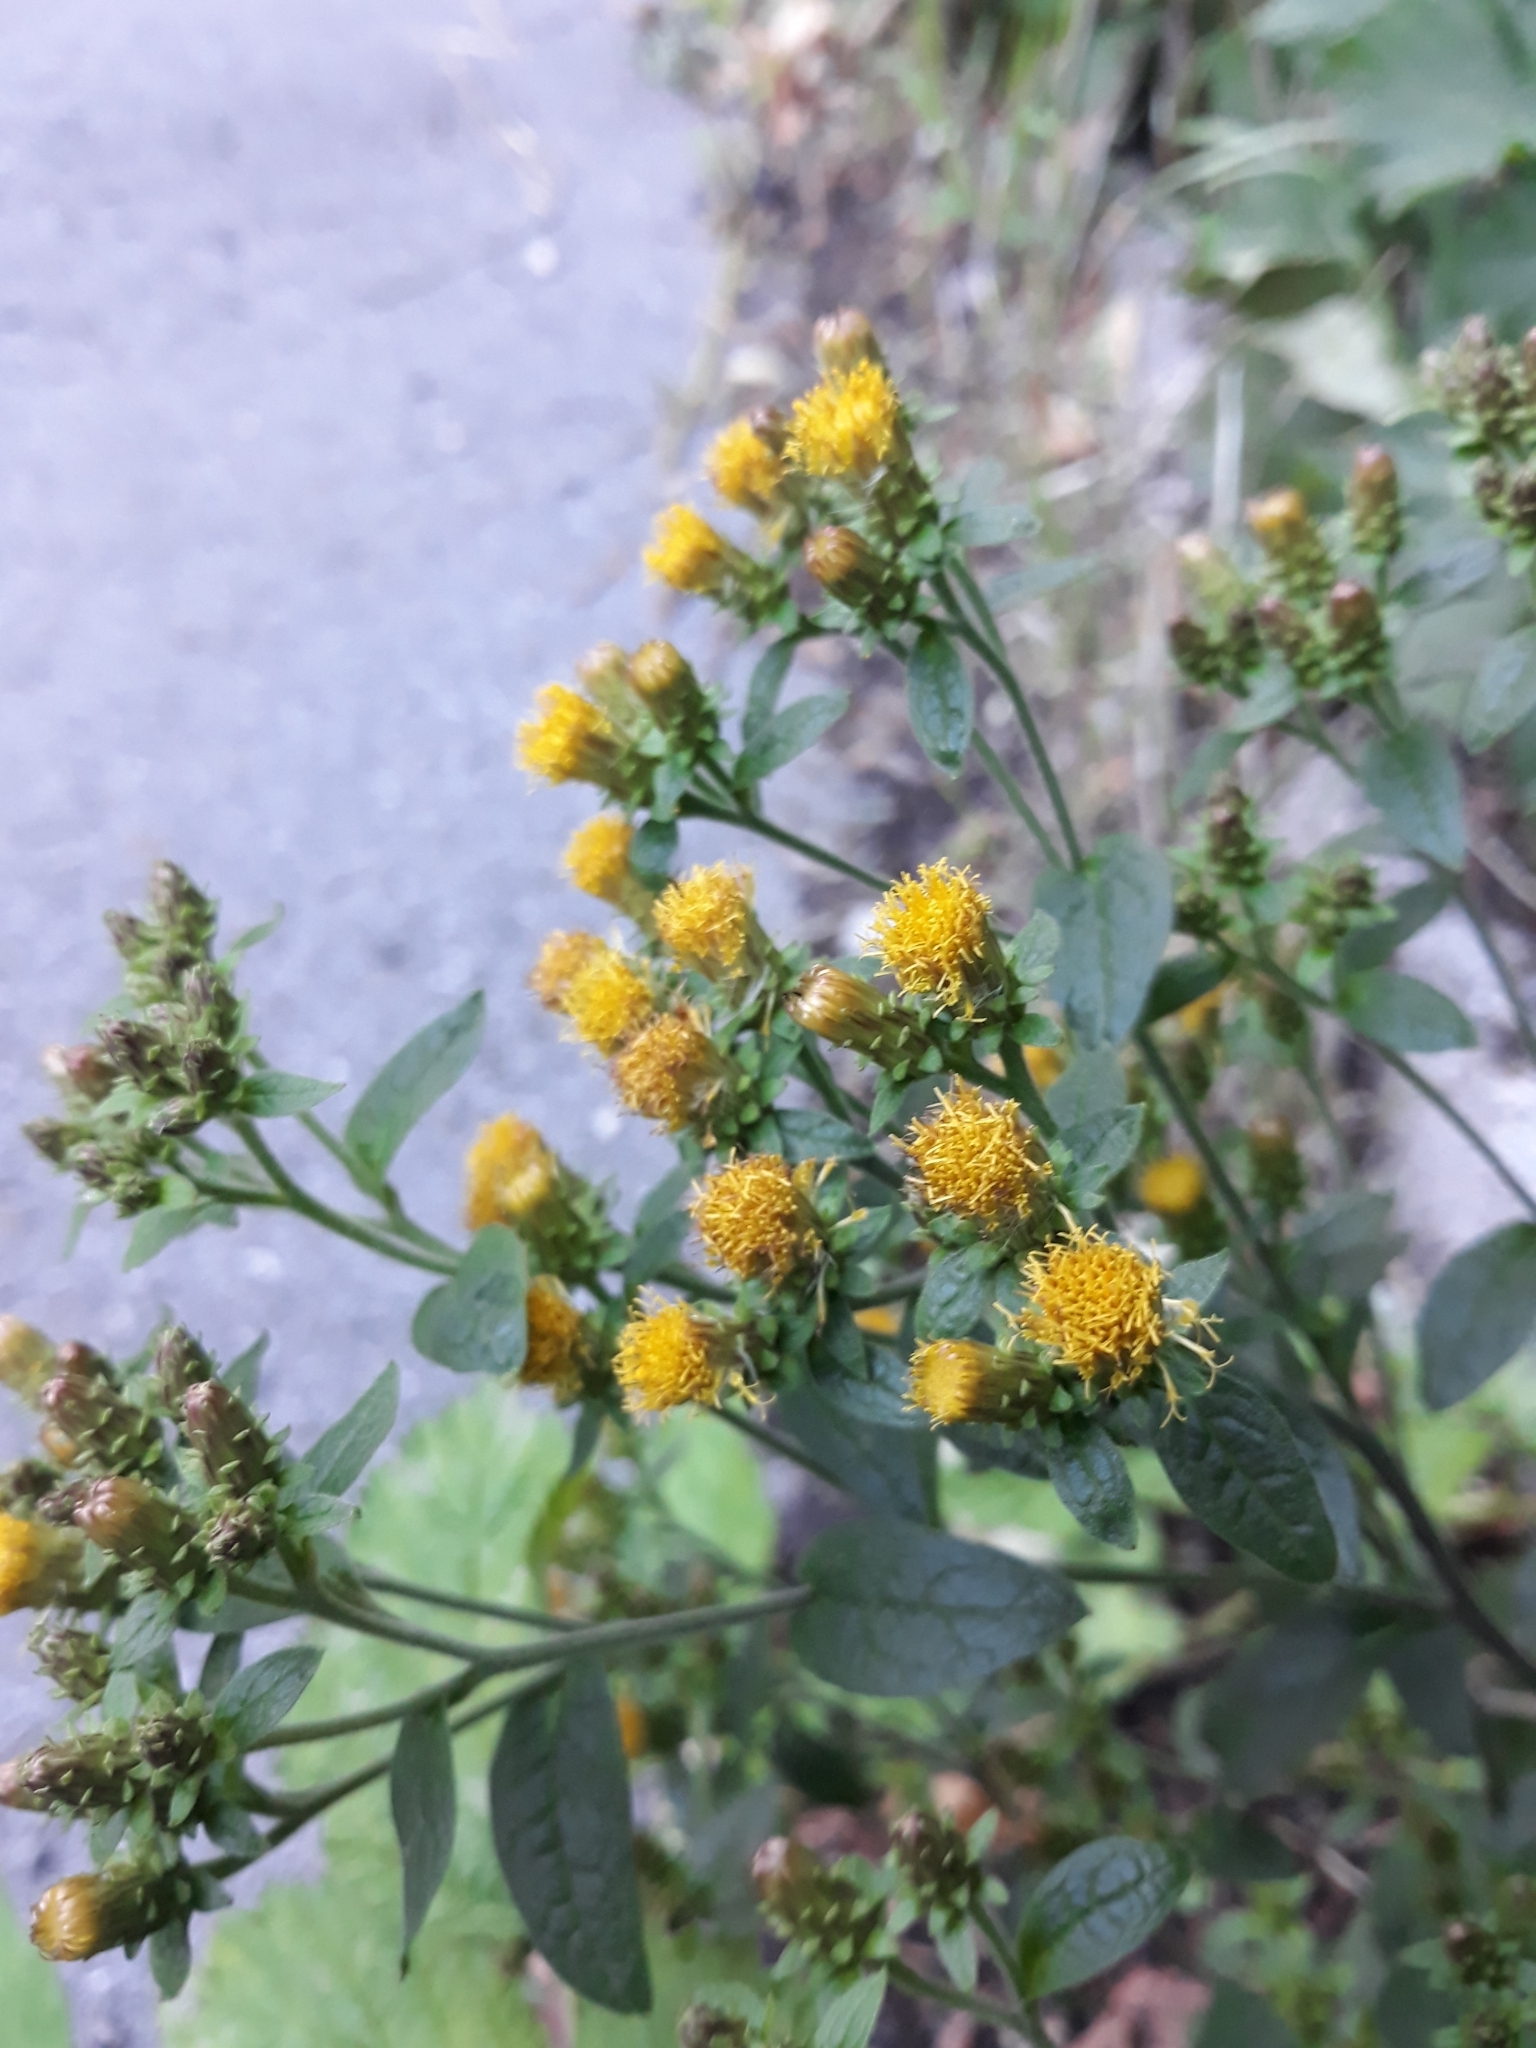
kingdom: Plantae
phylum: Tracheophyta
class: Magnoliopsida
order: Asterales
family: Asteraceae
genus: Pentanema
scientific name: Pentanema squarrosum
